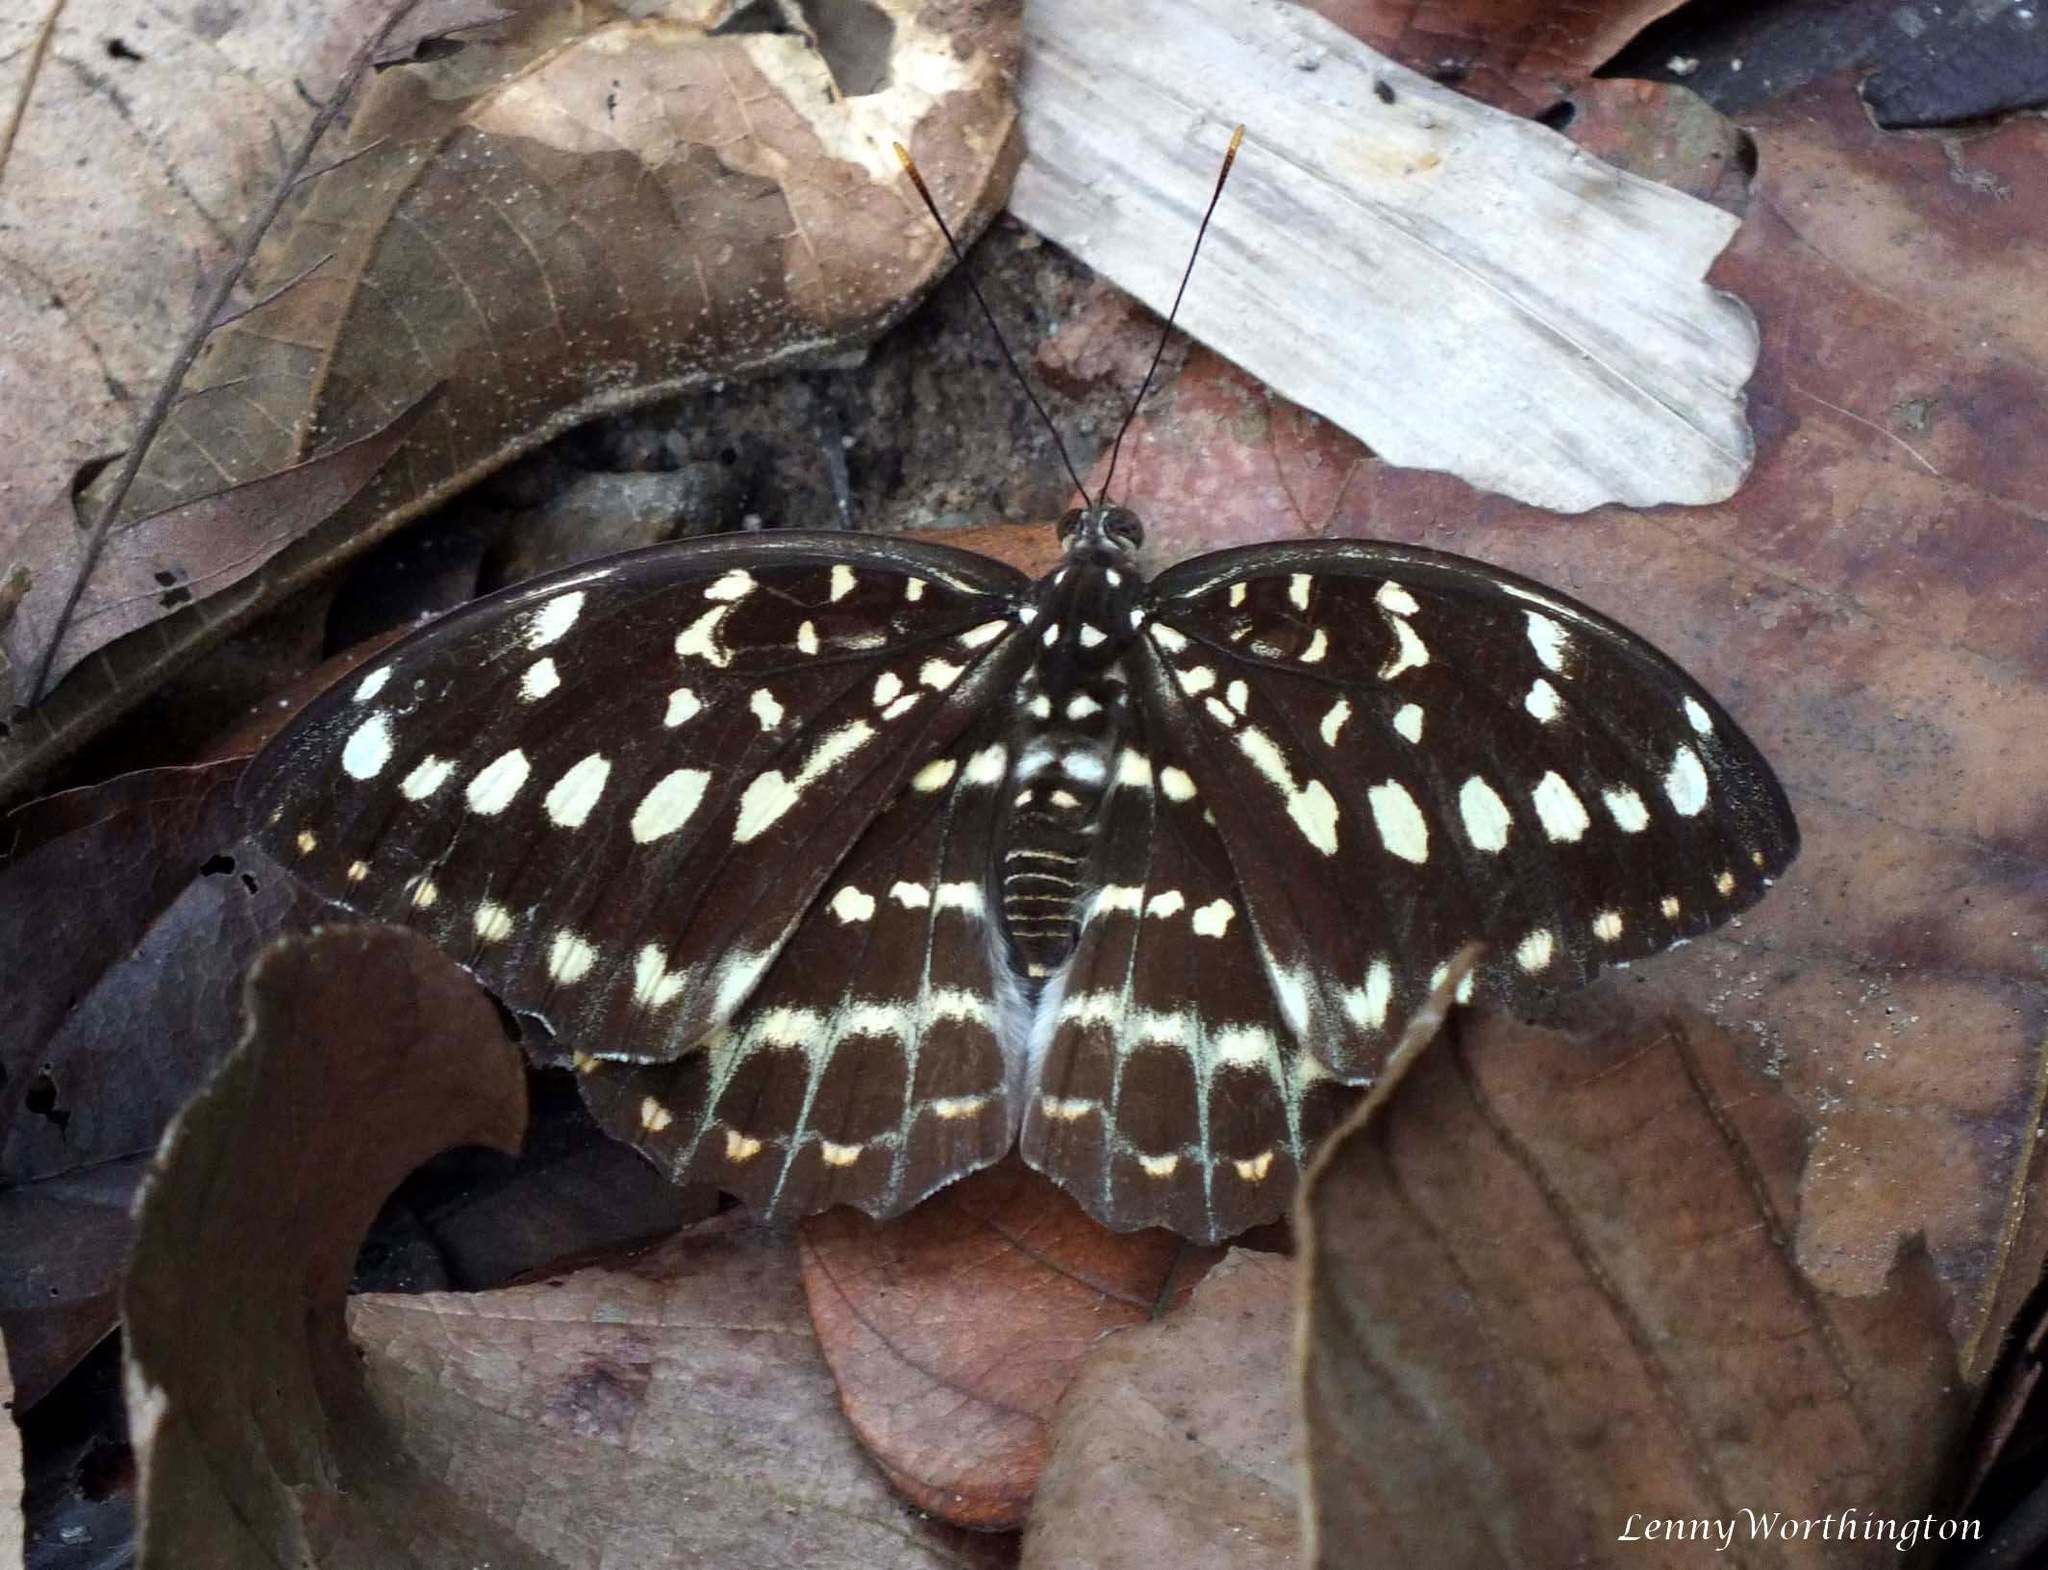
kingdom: Animalia
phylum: Arthropoda
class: Insecta
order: Lepidoptera
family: Nymphalidae
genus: Lexias
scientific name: Lexias pardalis
